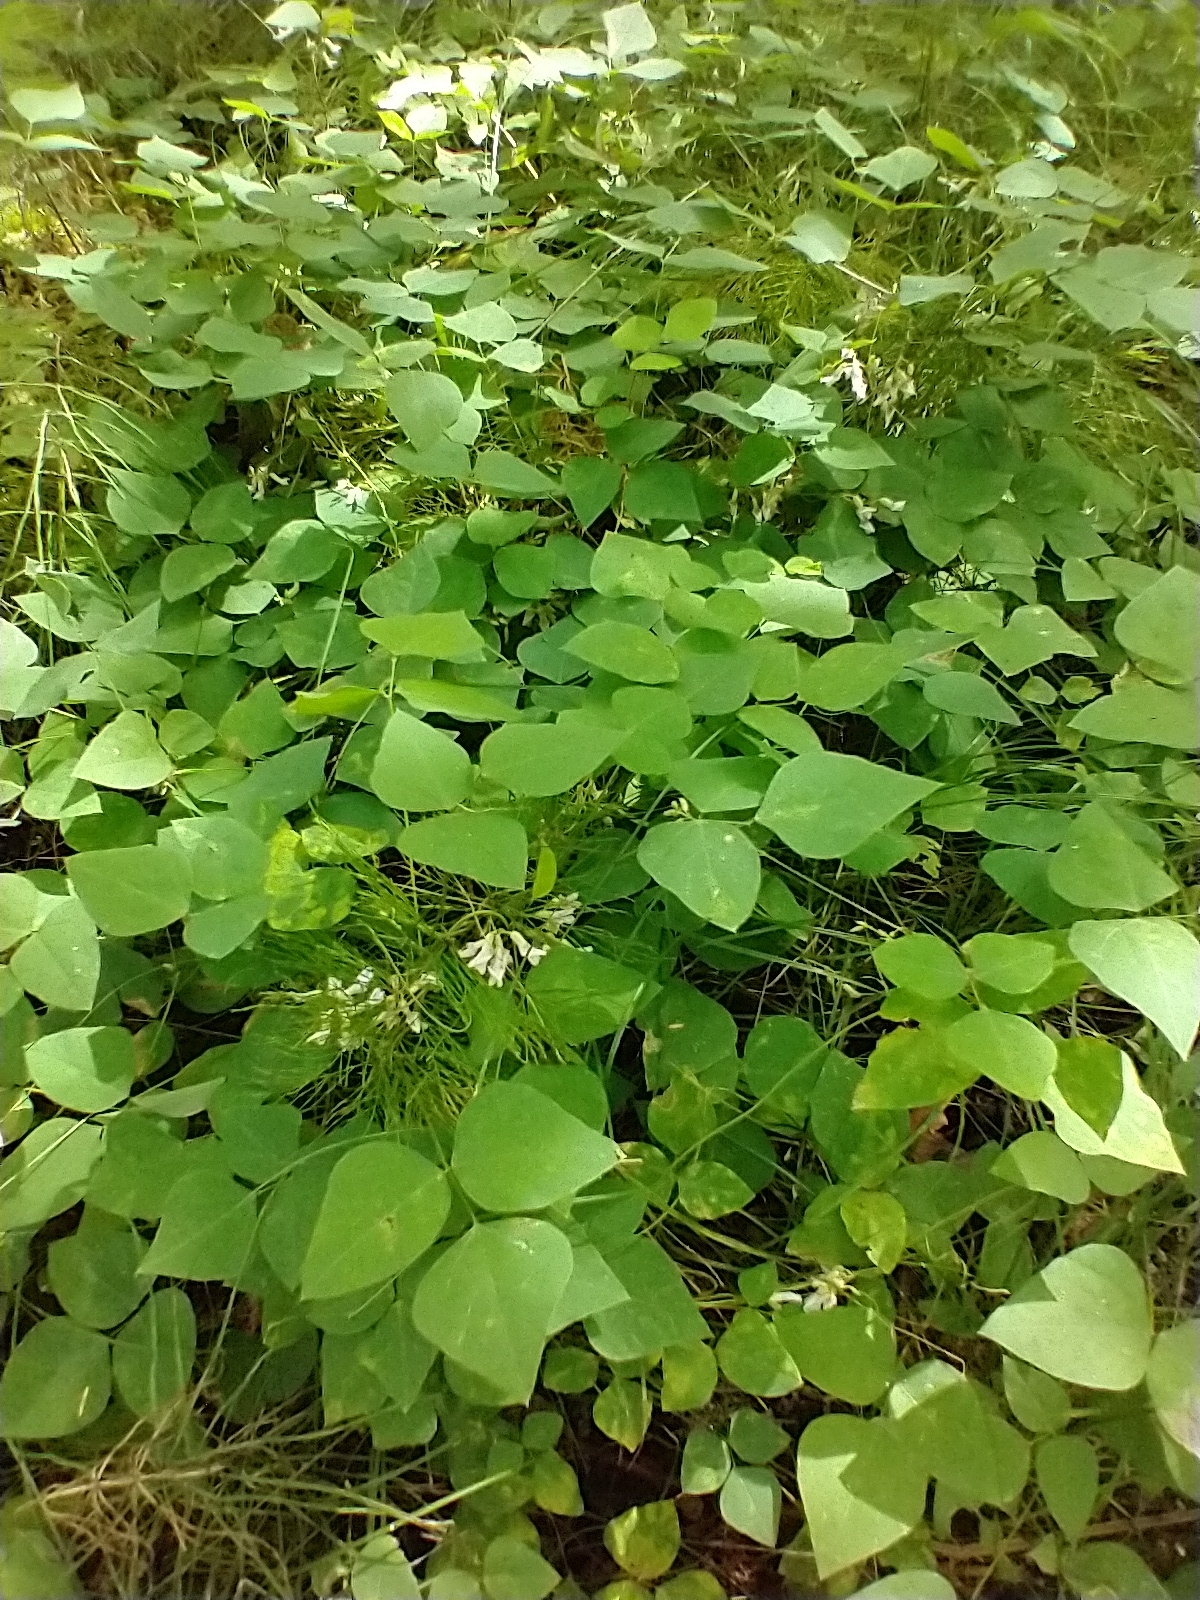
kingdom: Plantae
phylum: Tracheophyta
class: Magnoliopsida
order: Fabales
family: Fabaceae
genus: Amphicarpaea
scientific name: Amphicarpaea bracteata
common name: American hog peanut
